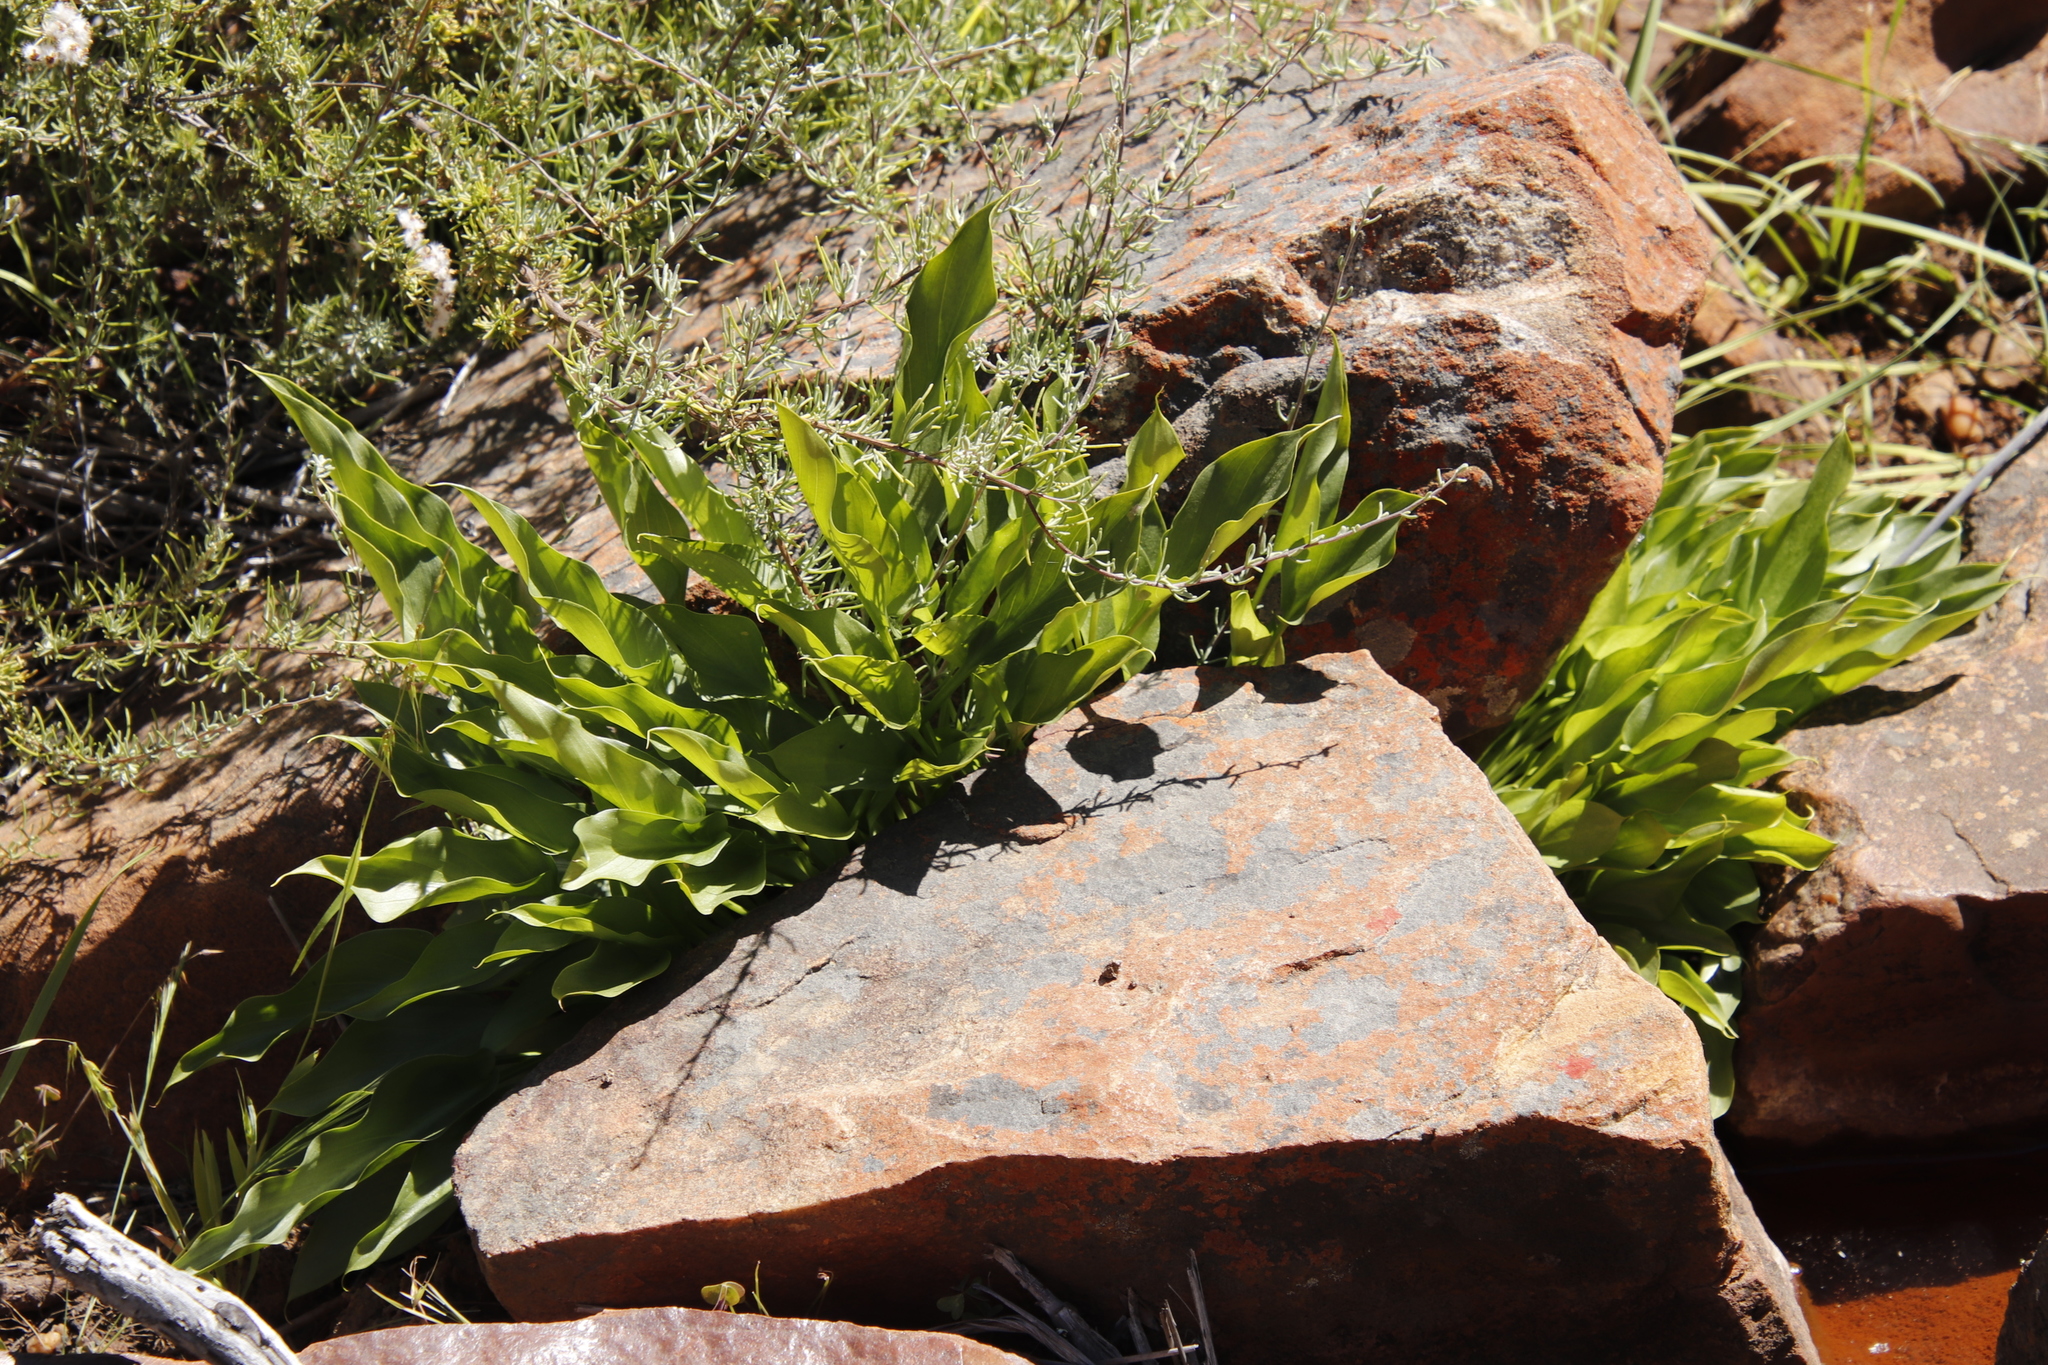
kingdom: Plantae
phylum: Tracheophyta
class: Liliopsida
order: Alismatales
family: Araceae
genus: Zantedeschia
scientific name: Zantedeschia odorata
